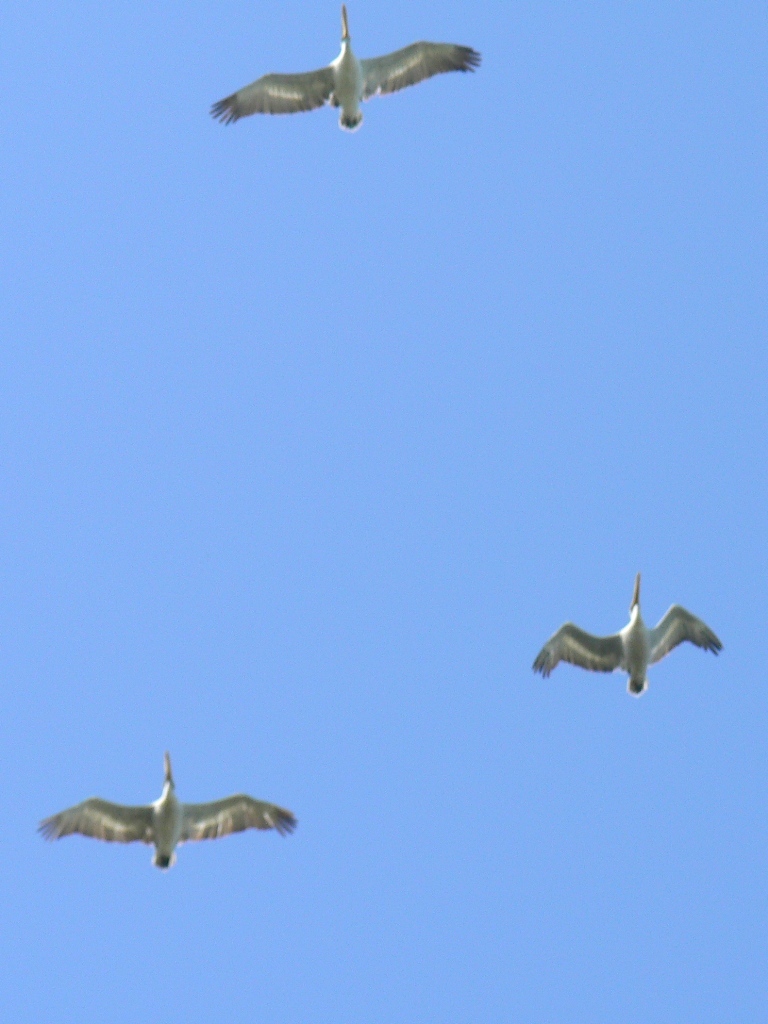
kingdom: Animalia
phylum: Chordata
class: Aves
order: Pelecaniformes
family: Pelecanidae
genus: Pelecanus
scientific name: Pelecanus crispus
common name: Dalmatian pelican
